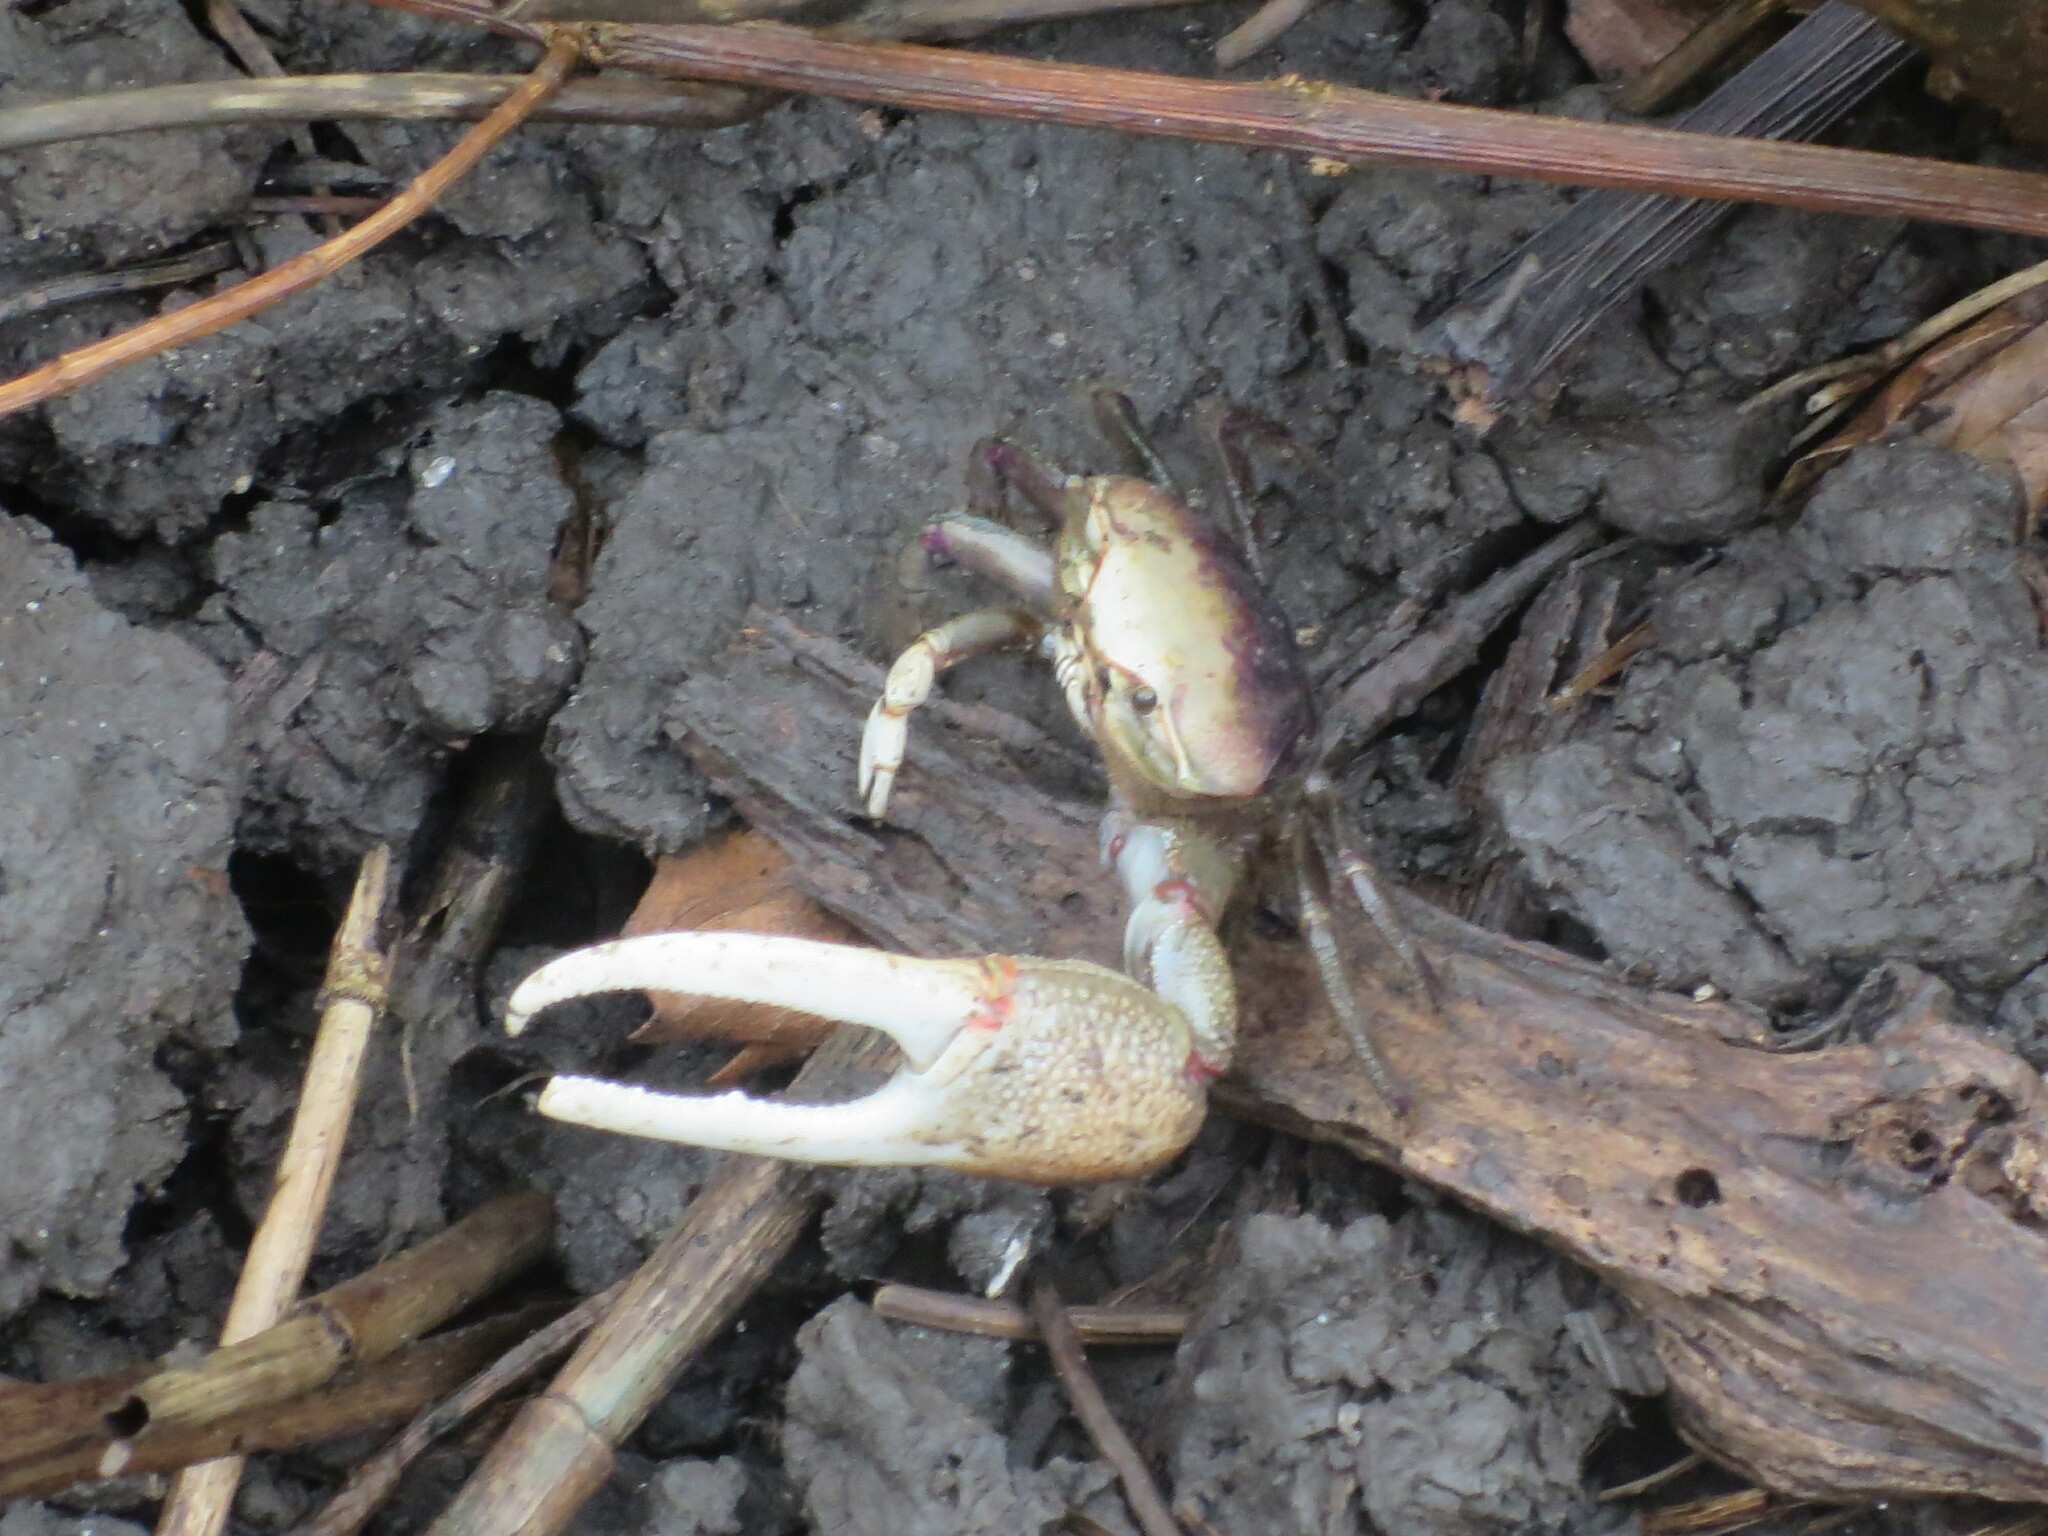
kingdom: Animalia
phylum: Arthropoda
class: Malacostraca
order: Decapoda
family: Ocypodidae
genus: Minuca
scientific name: Minuca minax
